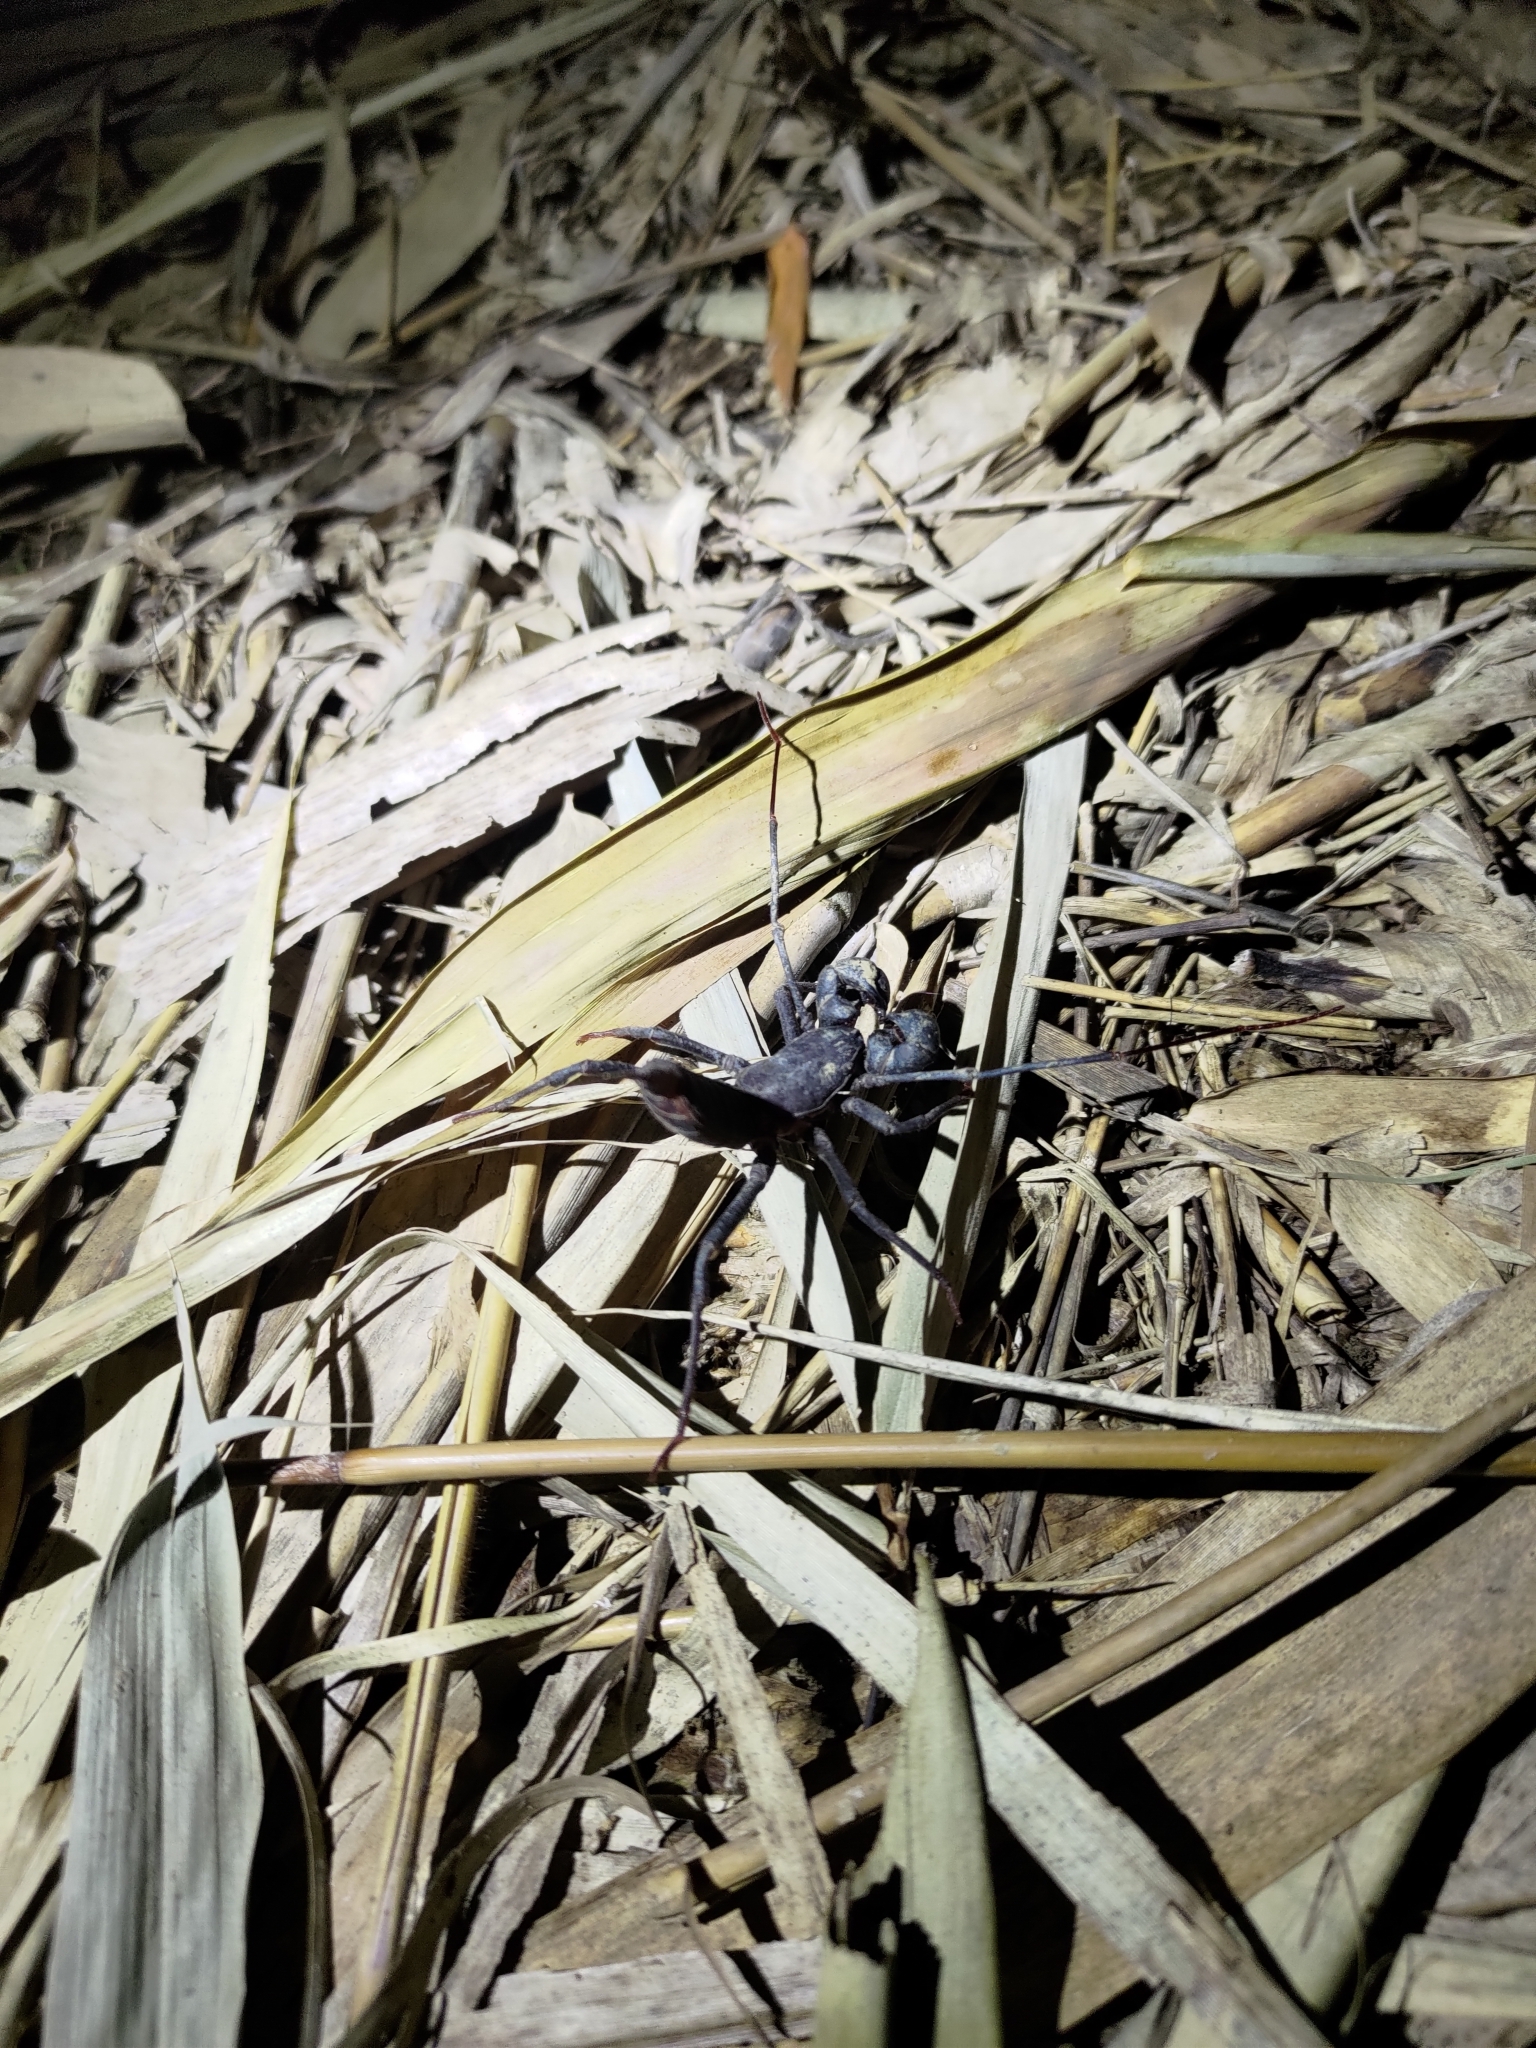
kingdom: Animalia
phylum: Arthropoda
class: Arachnida
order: Uropygi
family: Thelyphonidae
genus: Typopeltis
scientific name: Typopeltis crucifer
